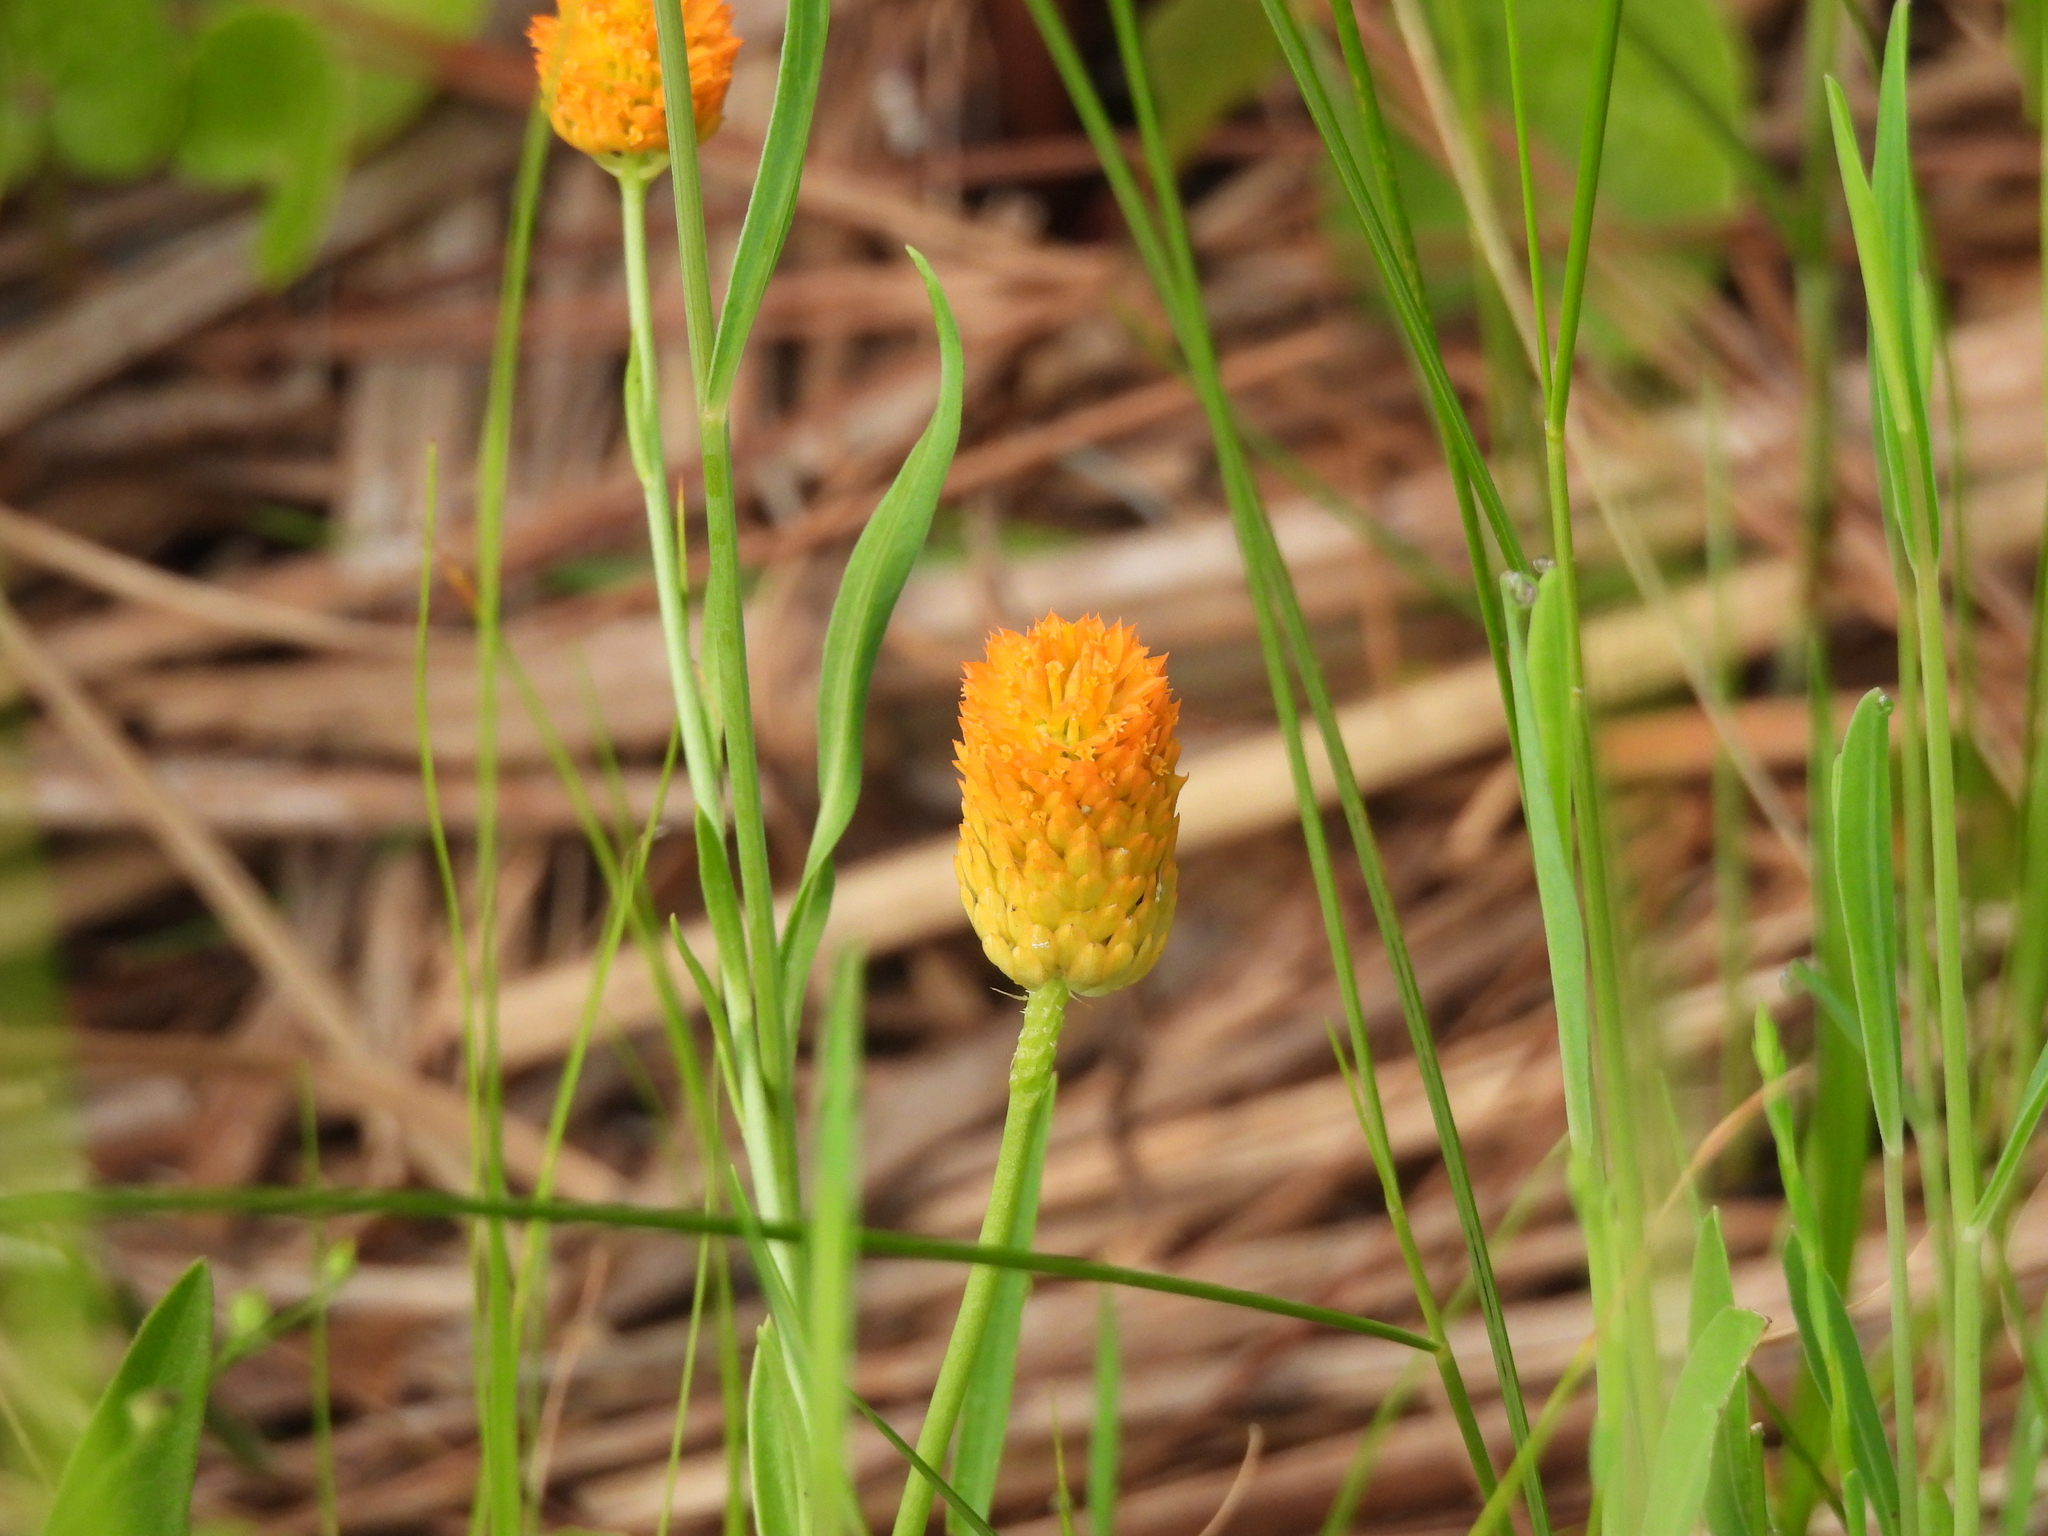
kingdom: Plantae
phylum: Tracheophyta
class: Magnoliopsida
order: Fabales
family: Polygalaceae
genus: Polygala
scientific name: Polygala lutea
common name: Orange milkwort
